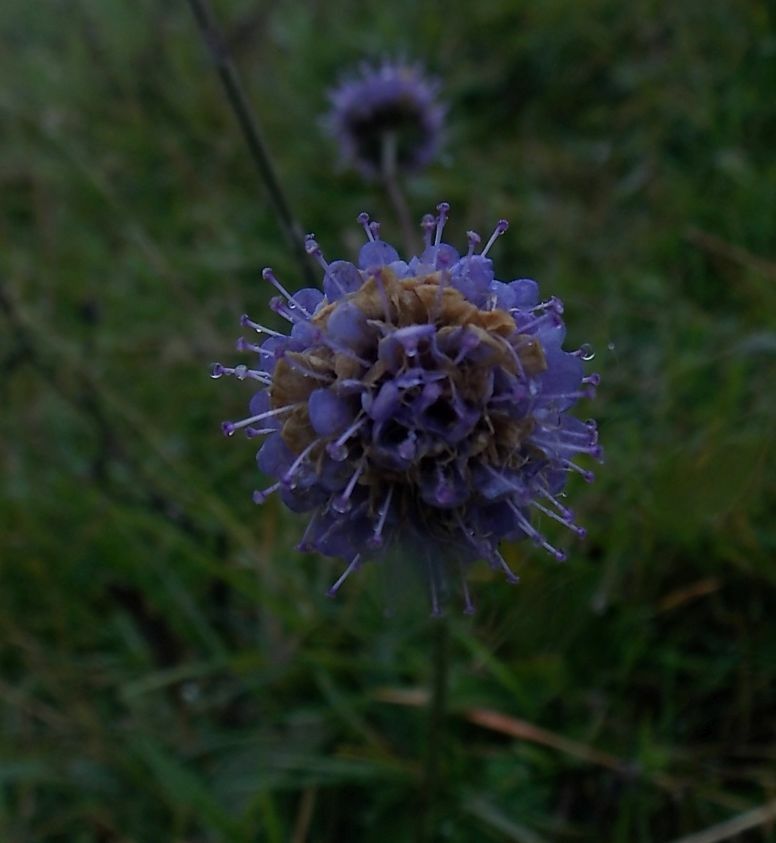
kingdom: Plantae
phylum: Tracheophyta
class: Magnoliopsida
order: Dipsacales
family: Caprifoliaceae
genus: Succisa
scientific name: Succisa pratensis
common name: Devil's-bit
